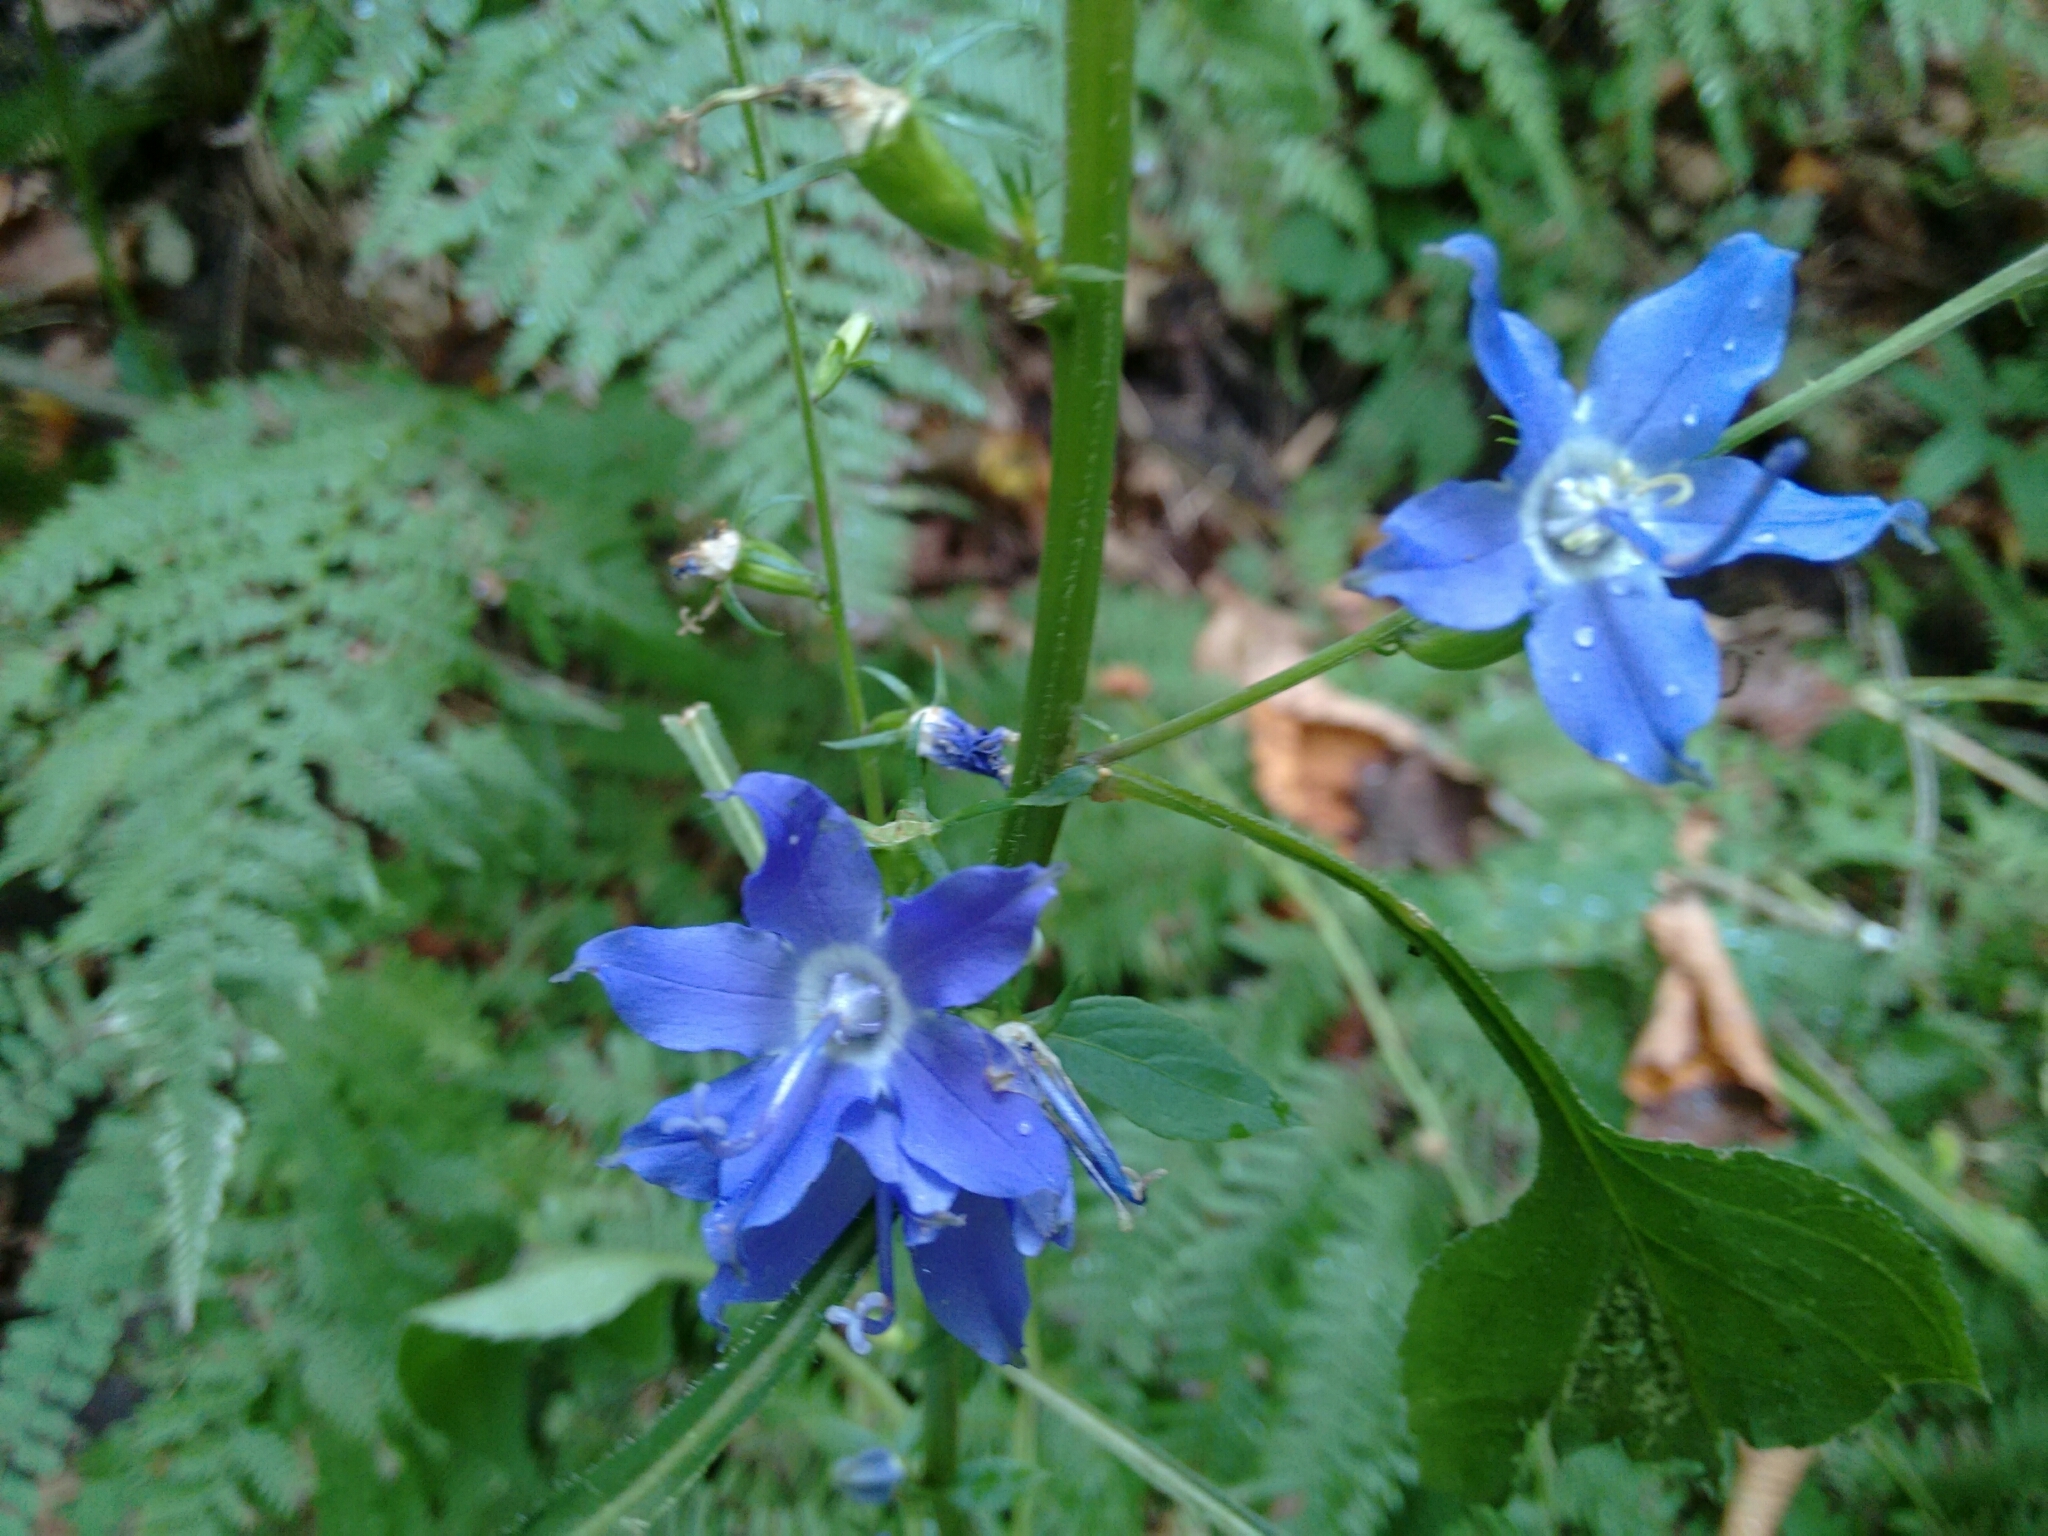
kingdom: Plantae
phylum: Tracheophyta
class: Magnoliopsida
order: Asterales
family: Campanulaceae
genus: Campanulastrum
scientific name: Campanulastrum americanum
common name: American bellflower
